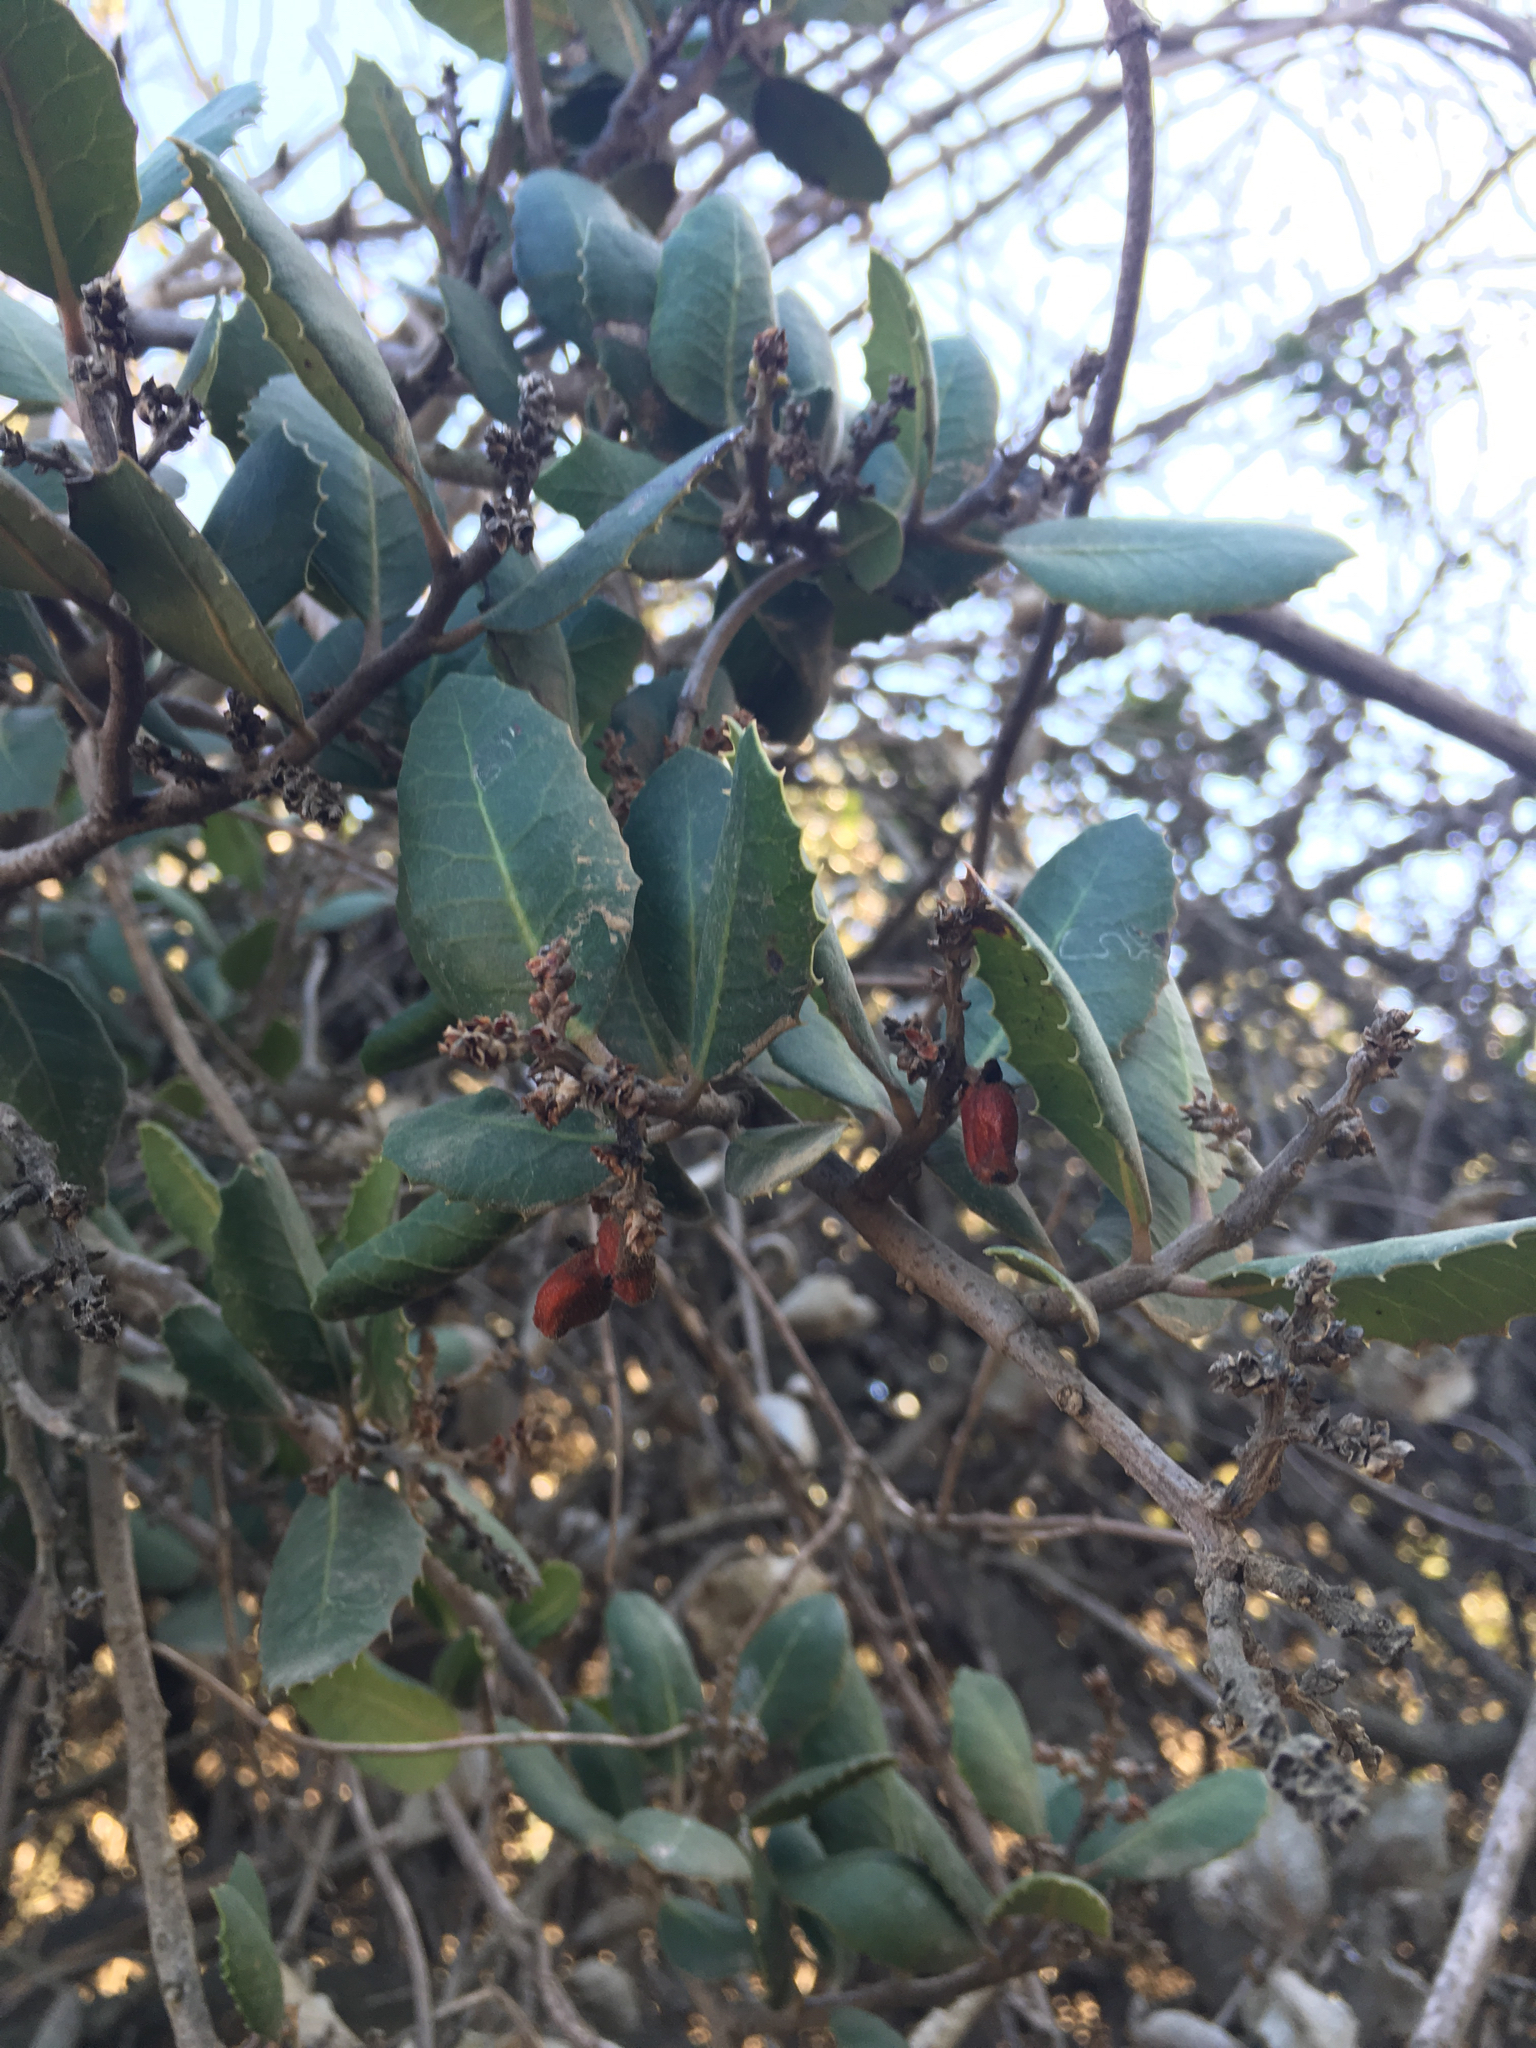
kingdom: Plantae
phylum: Tracheophyta
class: Magnoliopsida
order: Sapindales
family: Anacardiaceae
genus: Rhus
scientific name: Rhus integrifolia
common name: Lemonade sumac
